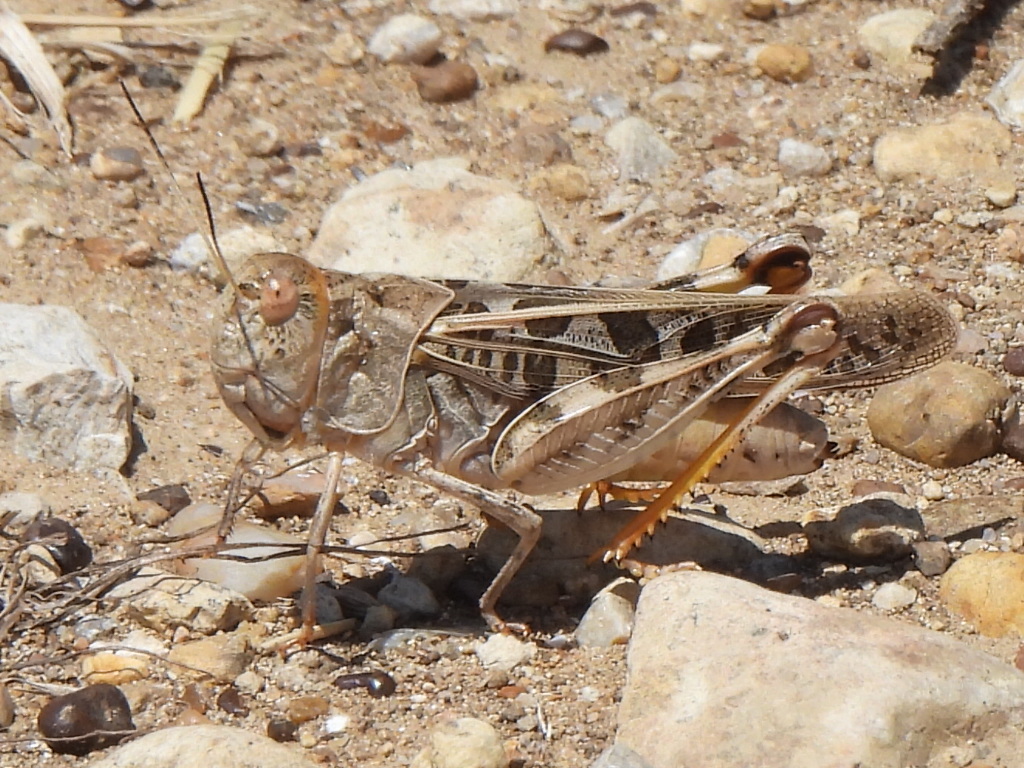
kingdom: Animalia
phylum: Arthropoda
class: Insecta
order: Orthoptera
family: Acrididae
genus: Hippiscus
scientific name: Hippiscus ocelote
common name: Wrinkled grasshopper
